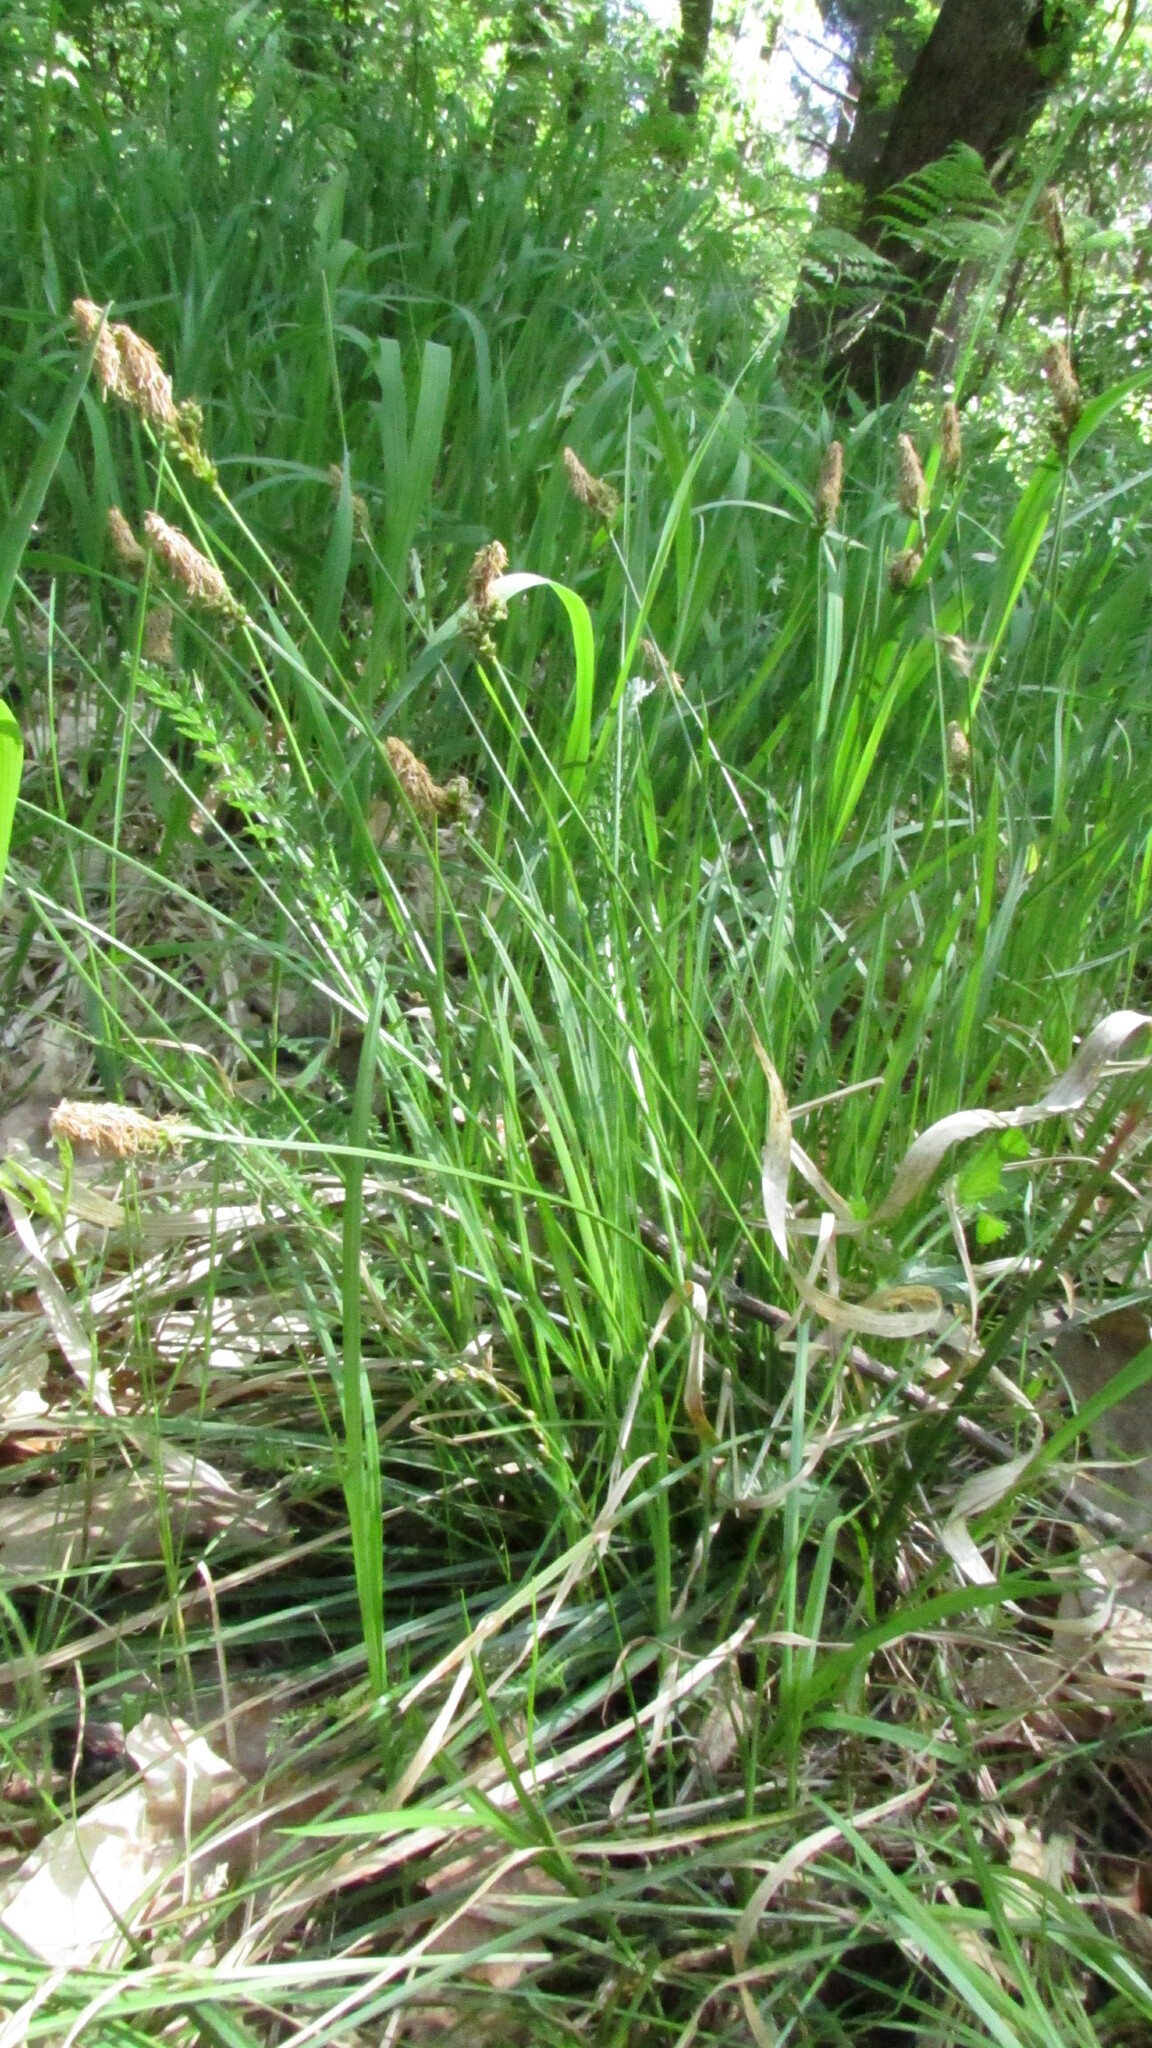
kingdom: Plantae
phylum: Tracheophyta
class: Liliopsida
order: Poales
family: Cyperaceae
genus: Carex
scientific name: Carex ericetorum
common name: Rare spring-sedge
